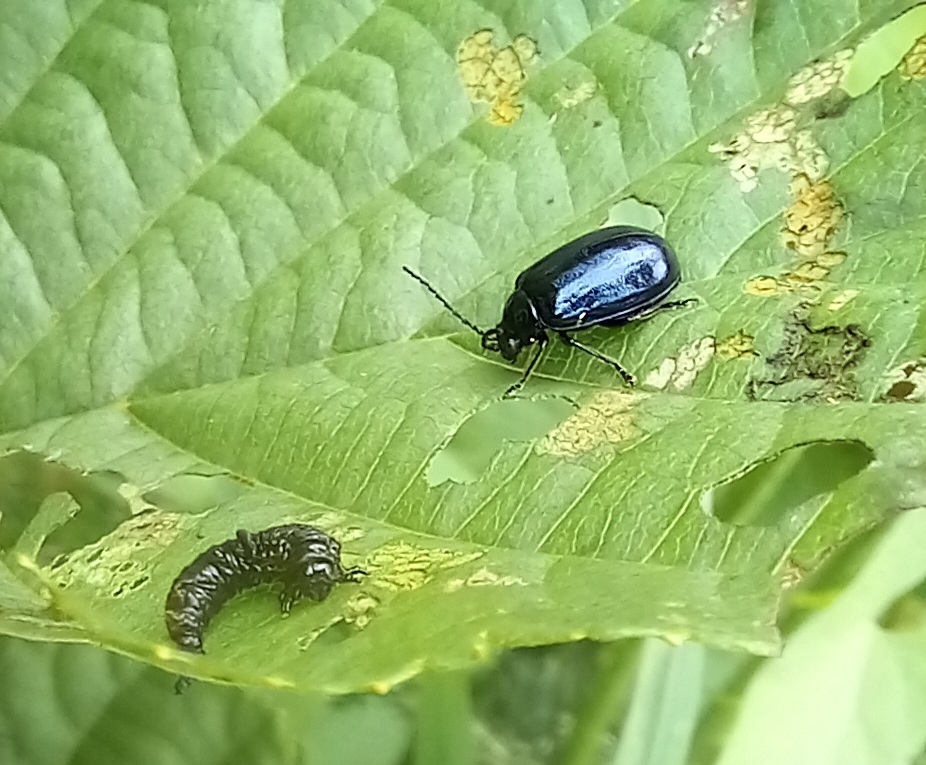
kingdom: Animalia
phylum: Arthropoda
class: Insecta
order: Coleoptera
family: Chrysomelidae
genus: Agelastica
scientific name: Agelastica alni
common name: Alder leaf beetle
